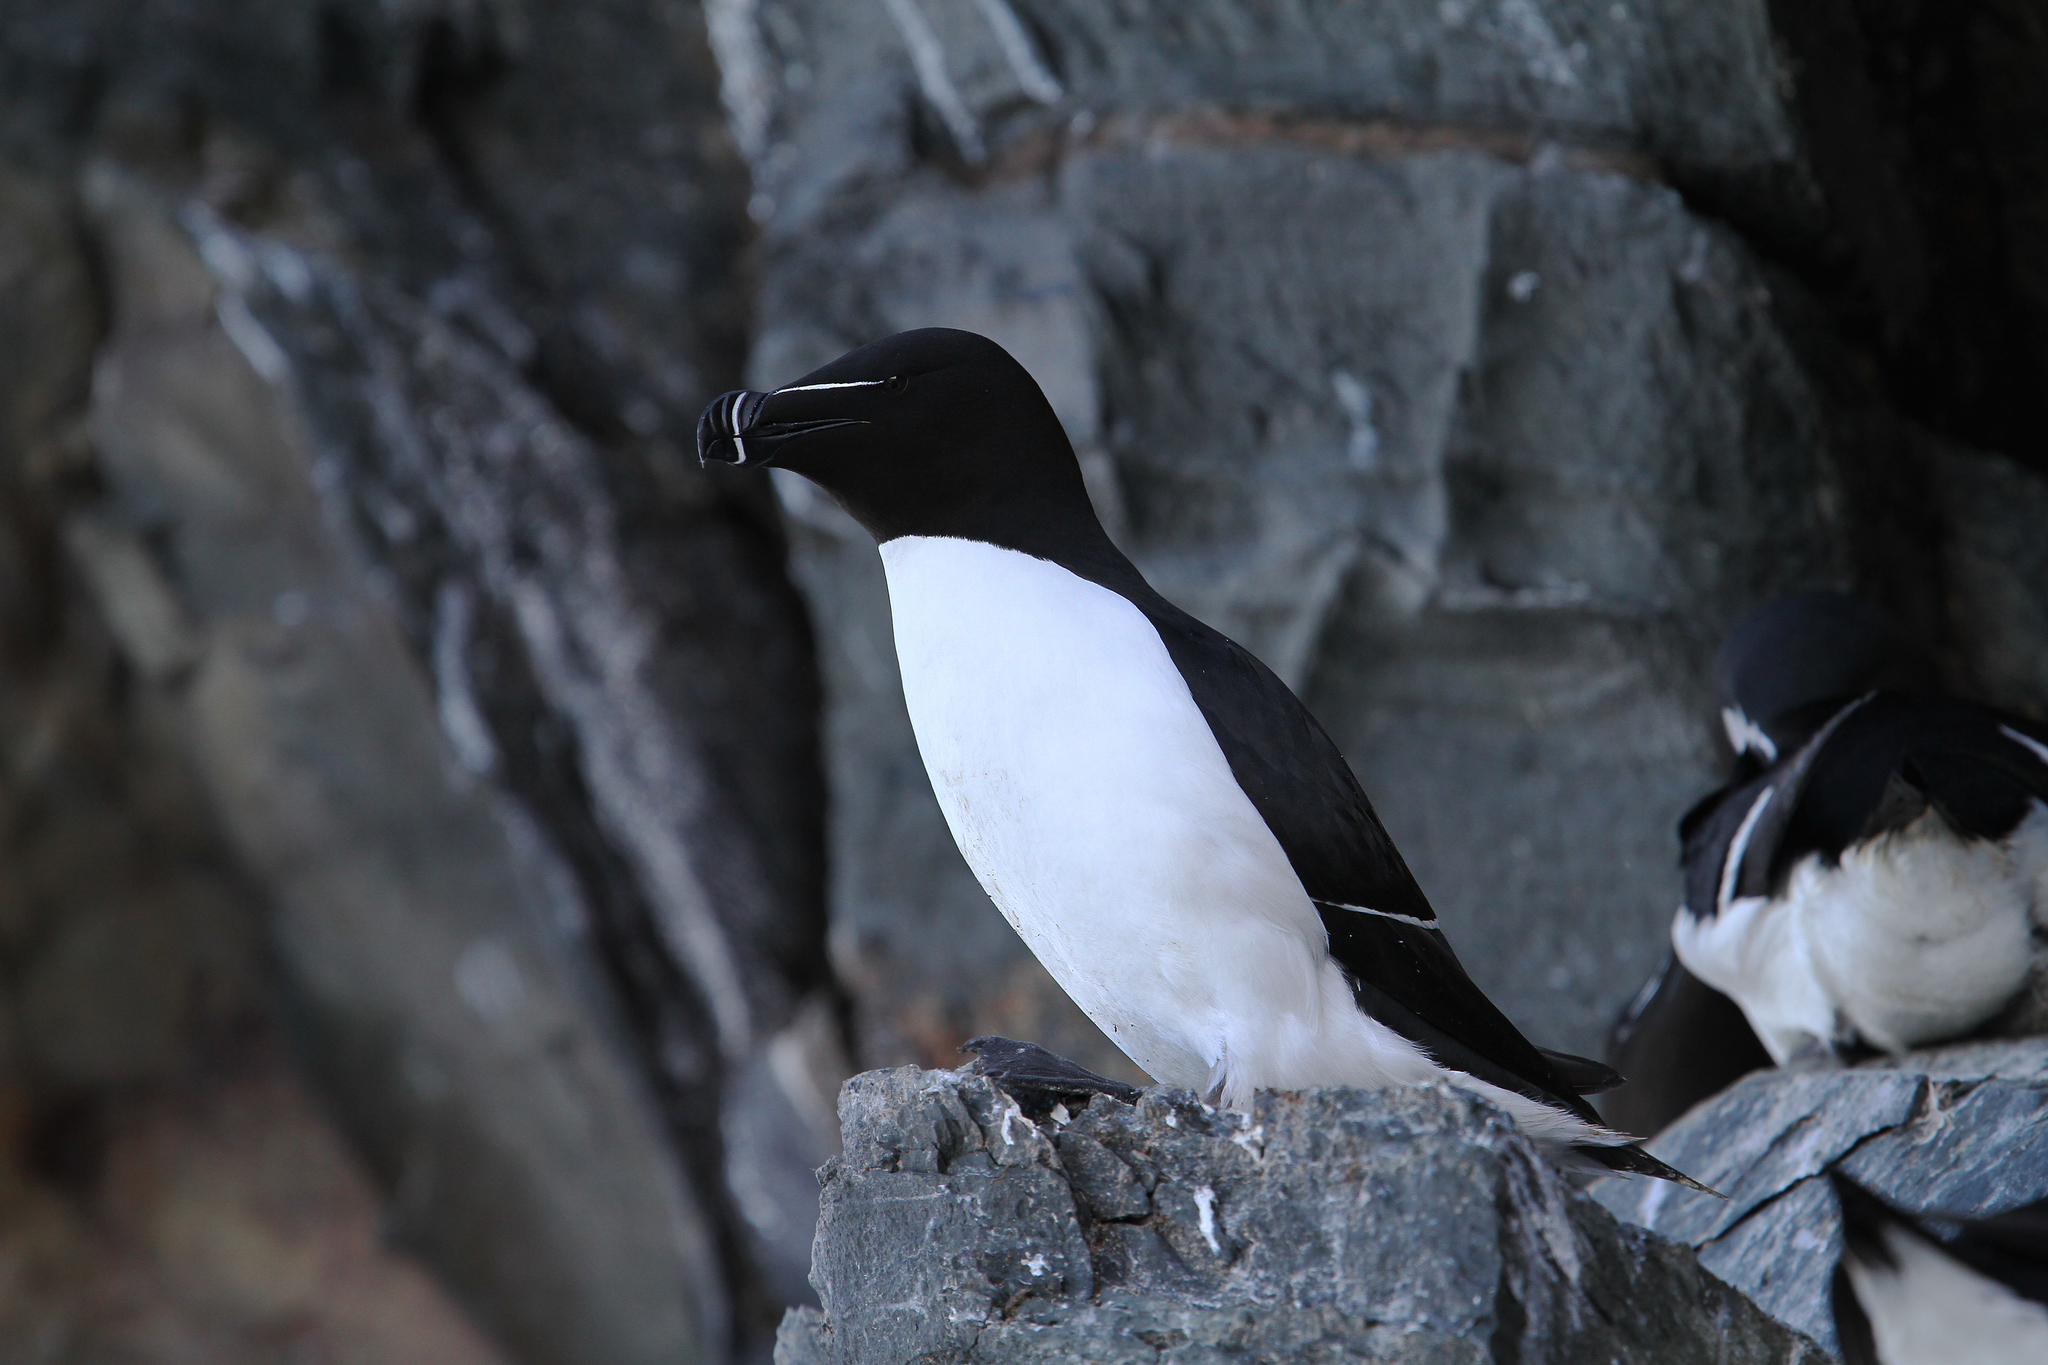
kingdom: Animalia
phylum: Chordata
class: Aves
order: Charadriiformes
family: Alcidae
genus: Alca
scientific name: Alca torda
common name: Razorbill
